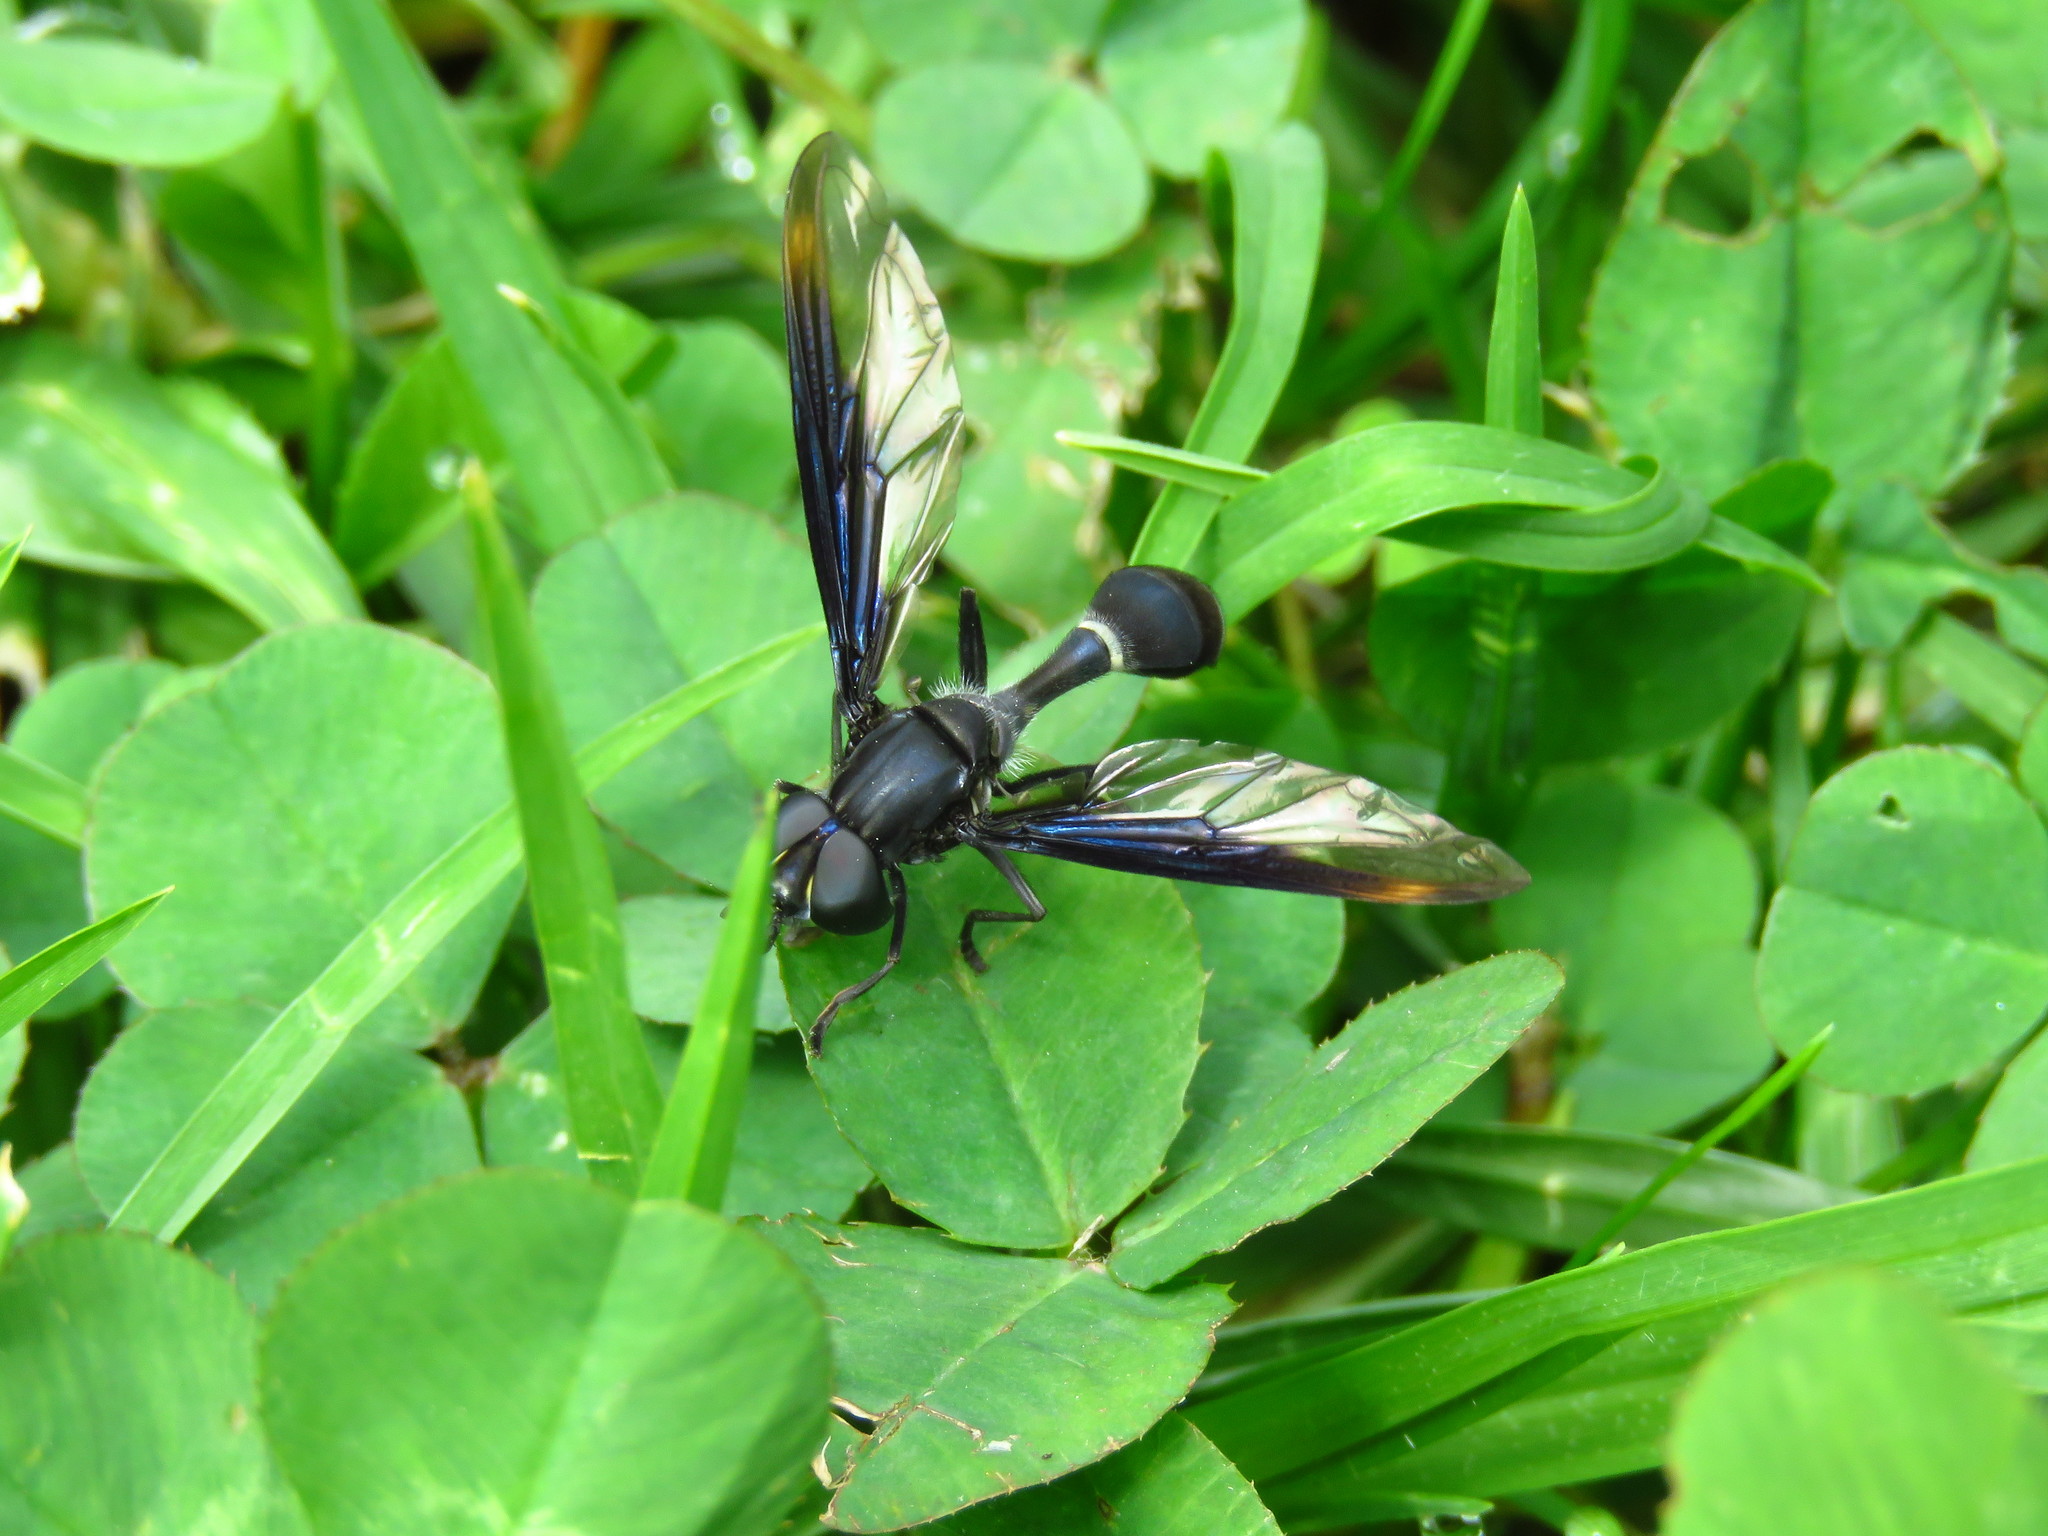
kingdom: Animalia
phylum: Arthropoda
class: Insecta
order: Diptera
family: Syrphidae
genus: Mimocalla
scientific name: Mimocalla giganteus
